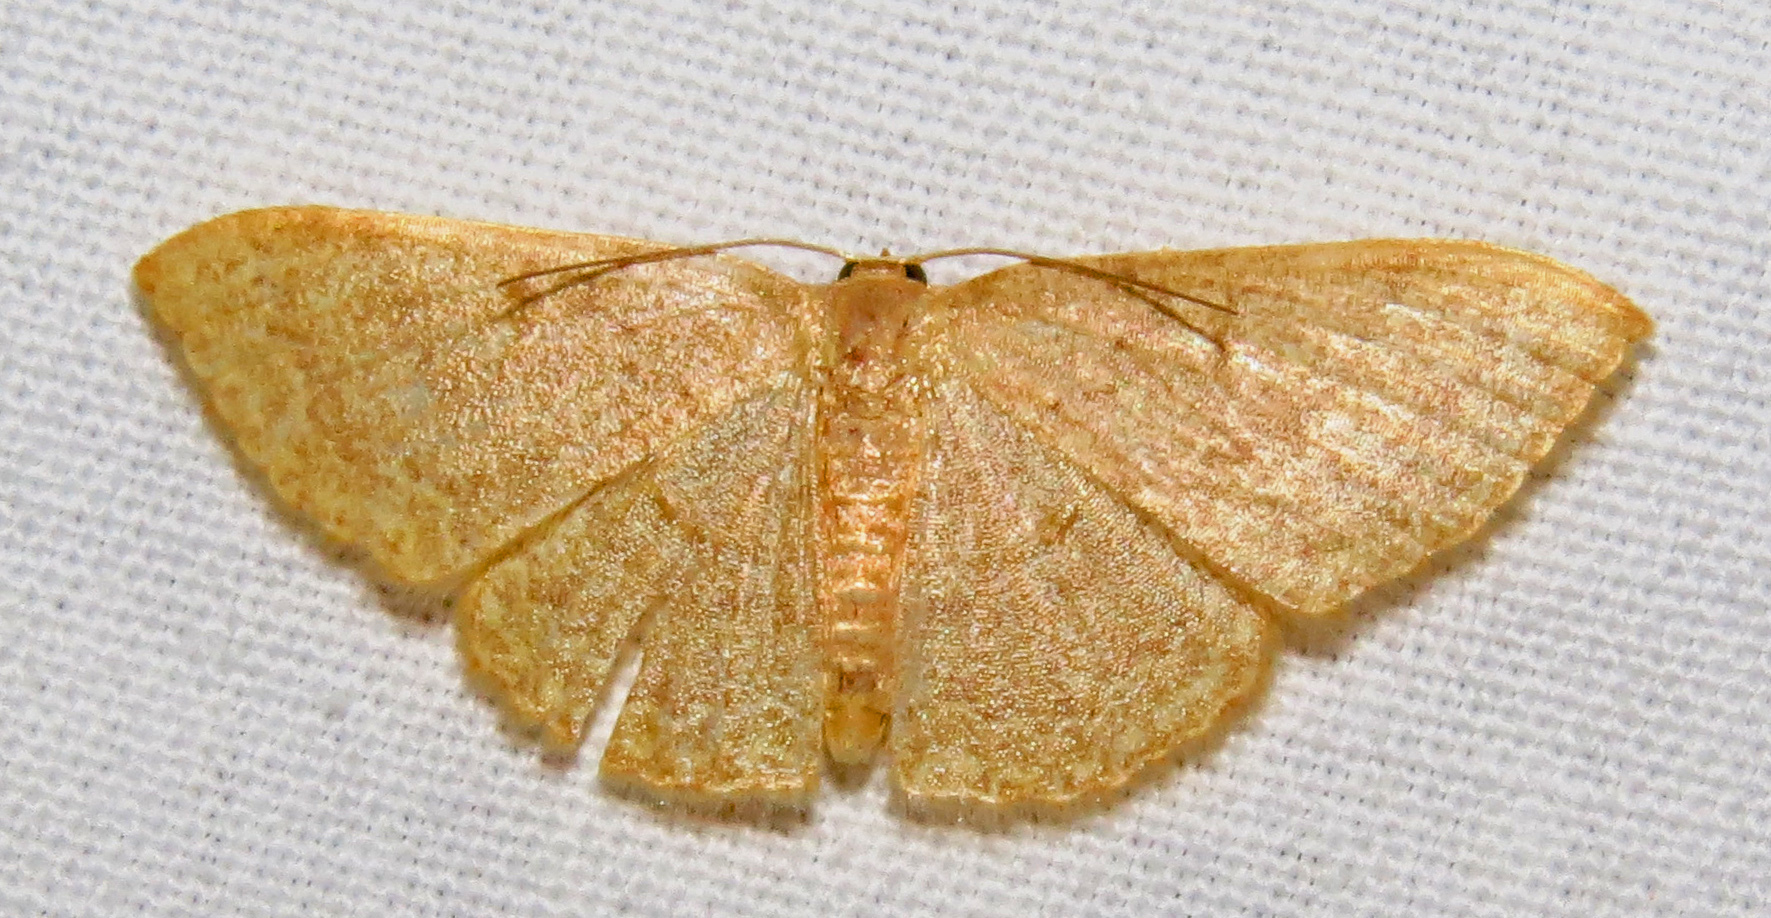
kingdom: Animalia
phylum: Arthropoda
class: Insecta
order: Lepidoptera
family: Geometridae
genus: Pleuroprucha
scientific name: Pleuroprucha insulsaria
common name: Common tan wave
